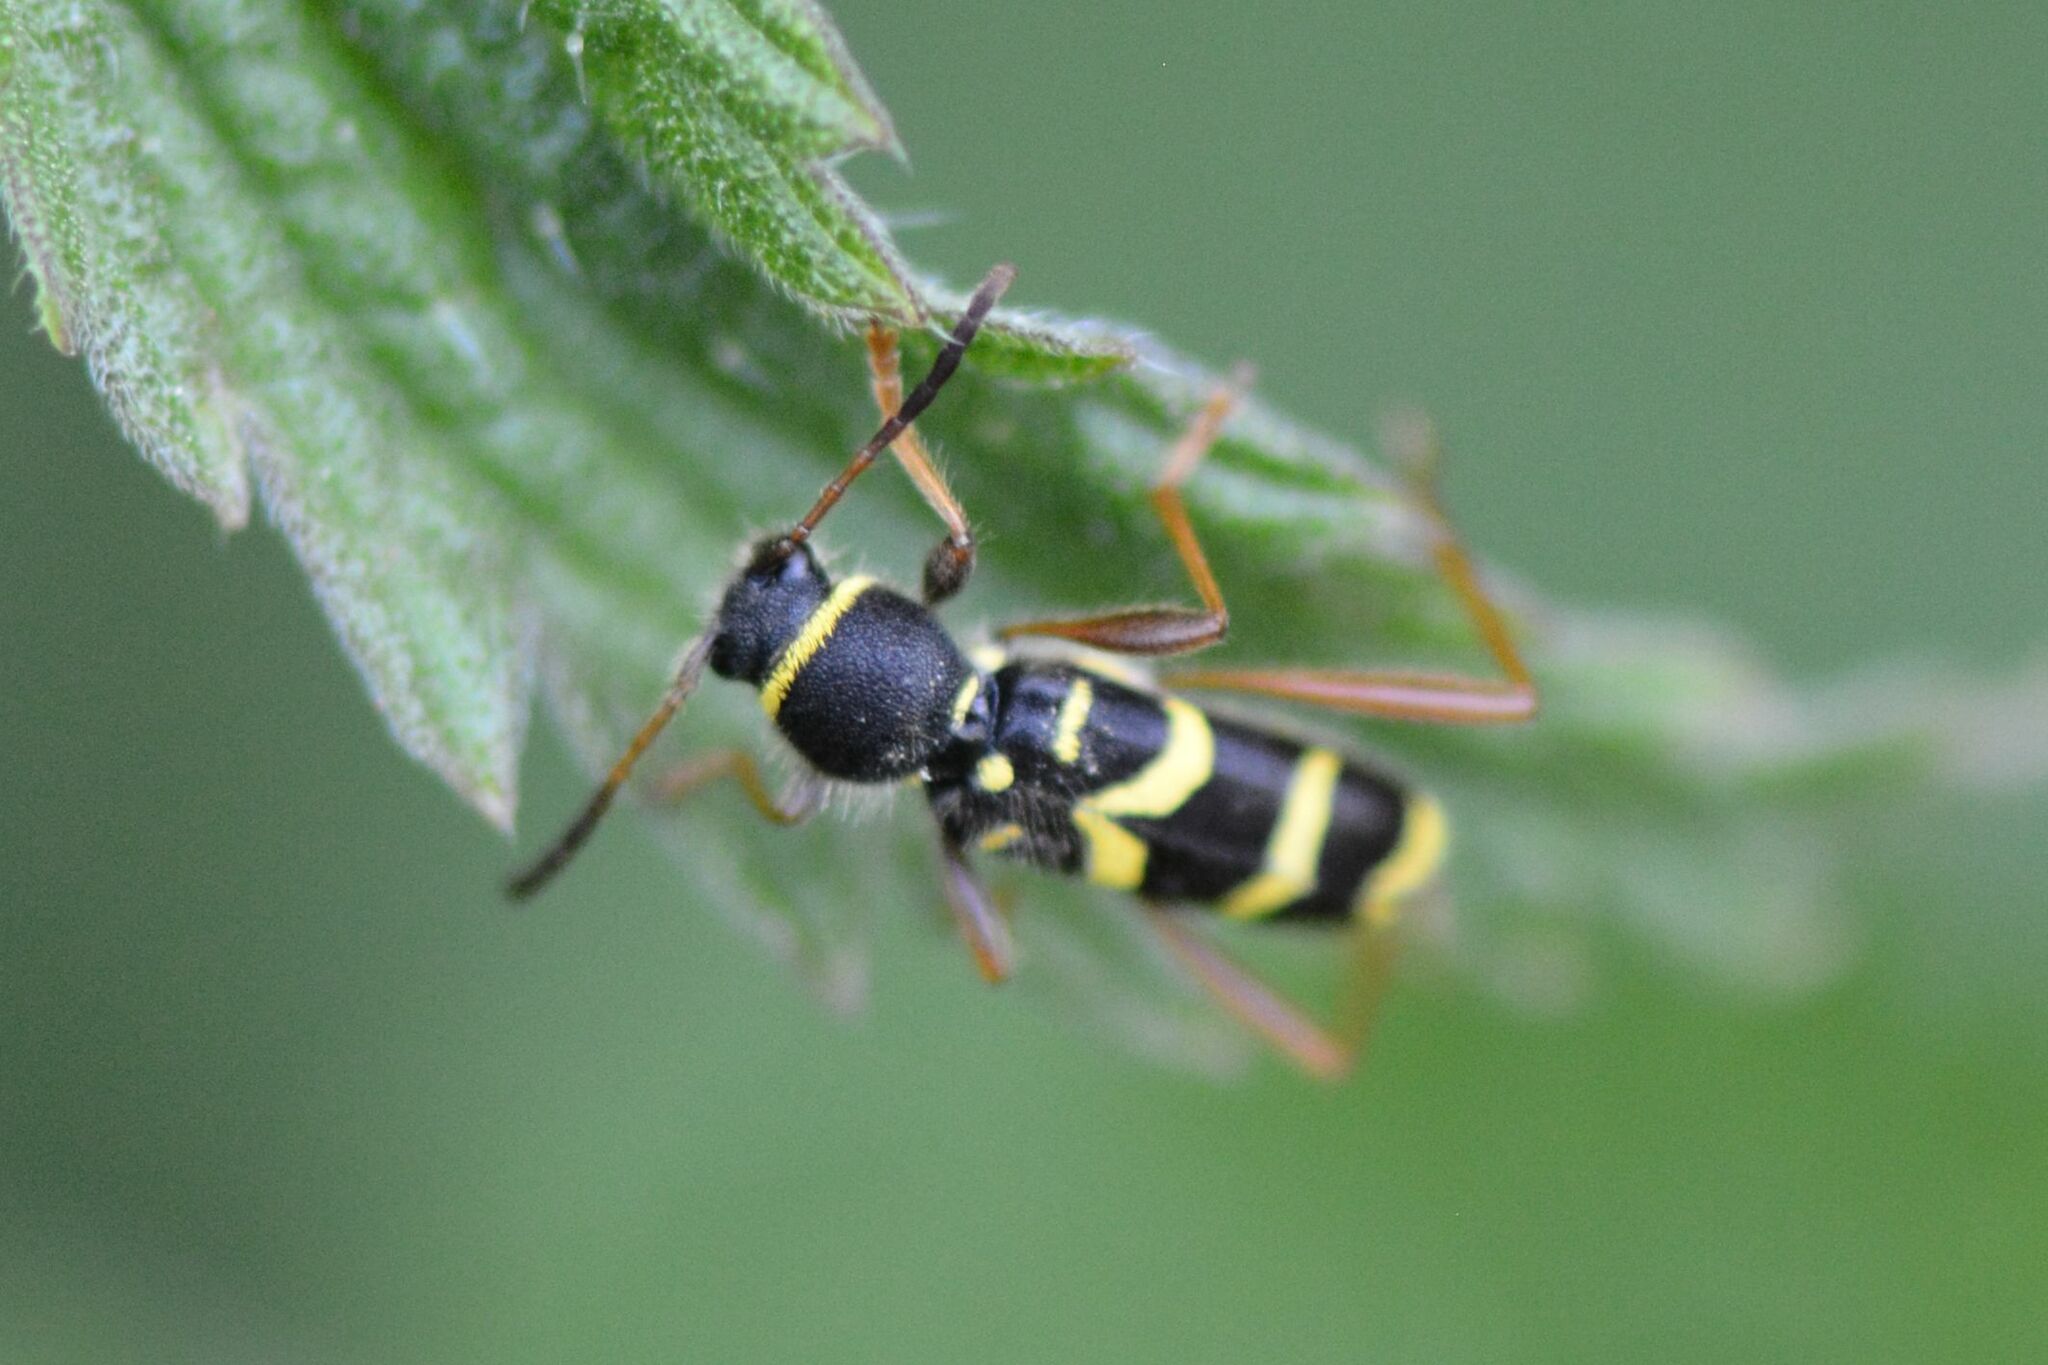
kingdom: Animalia
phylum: Arthropoda
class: Insecta
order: Coleoptera
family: Cerambycidae
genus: Clytus
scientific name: Clytus arietis
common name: Wasp beetle
